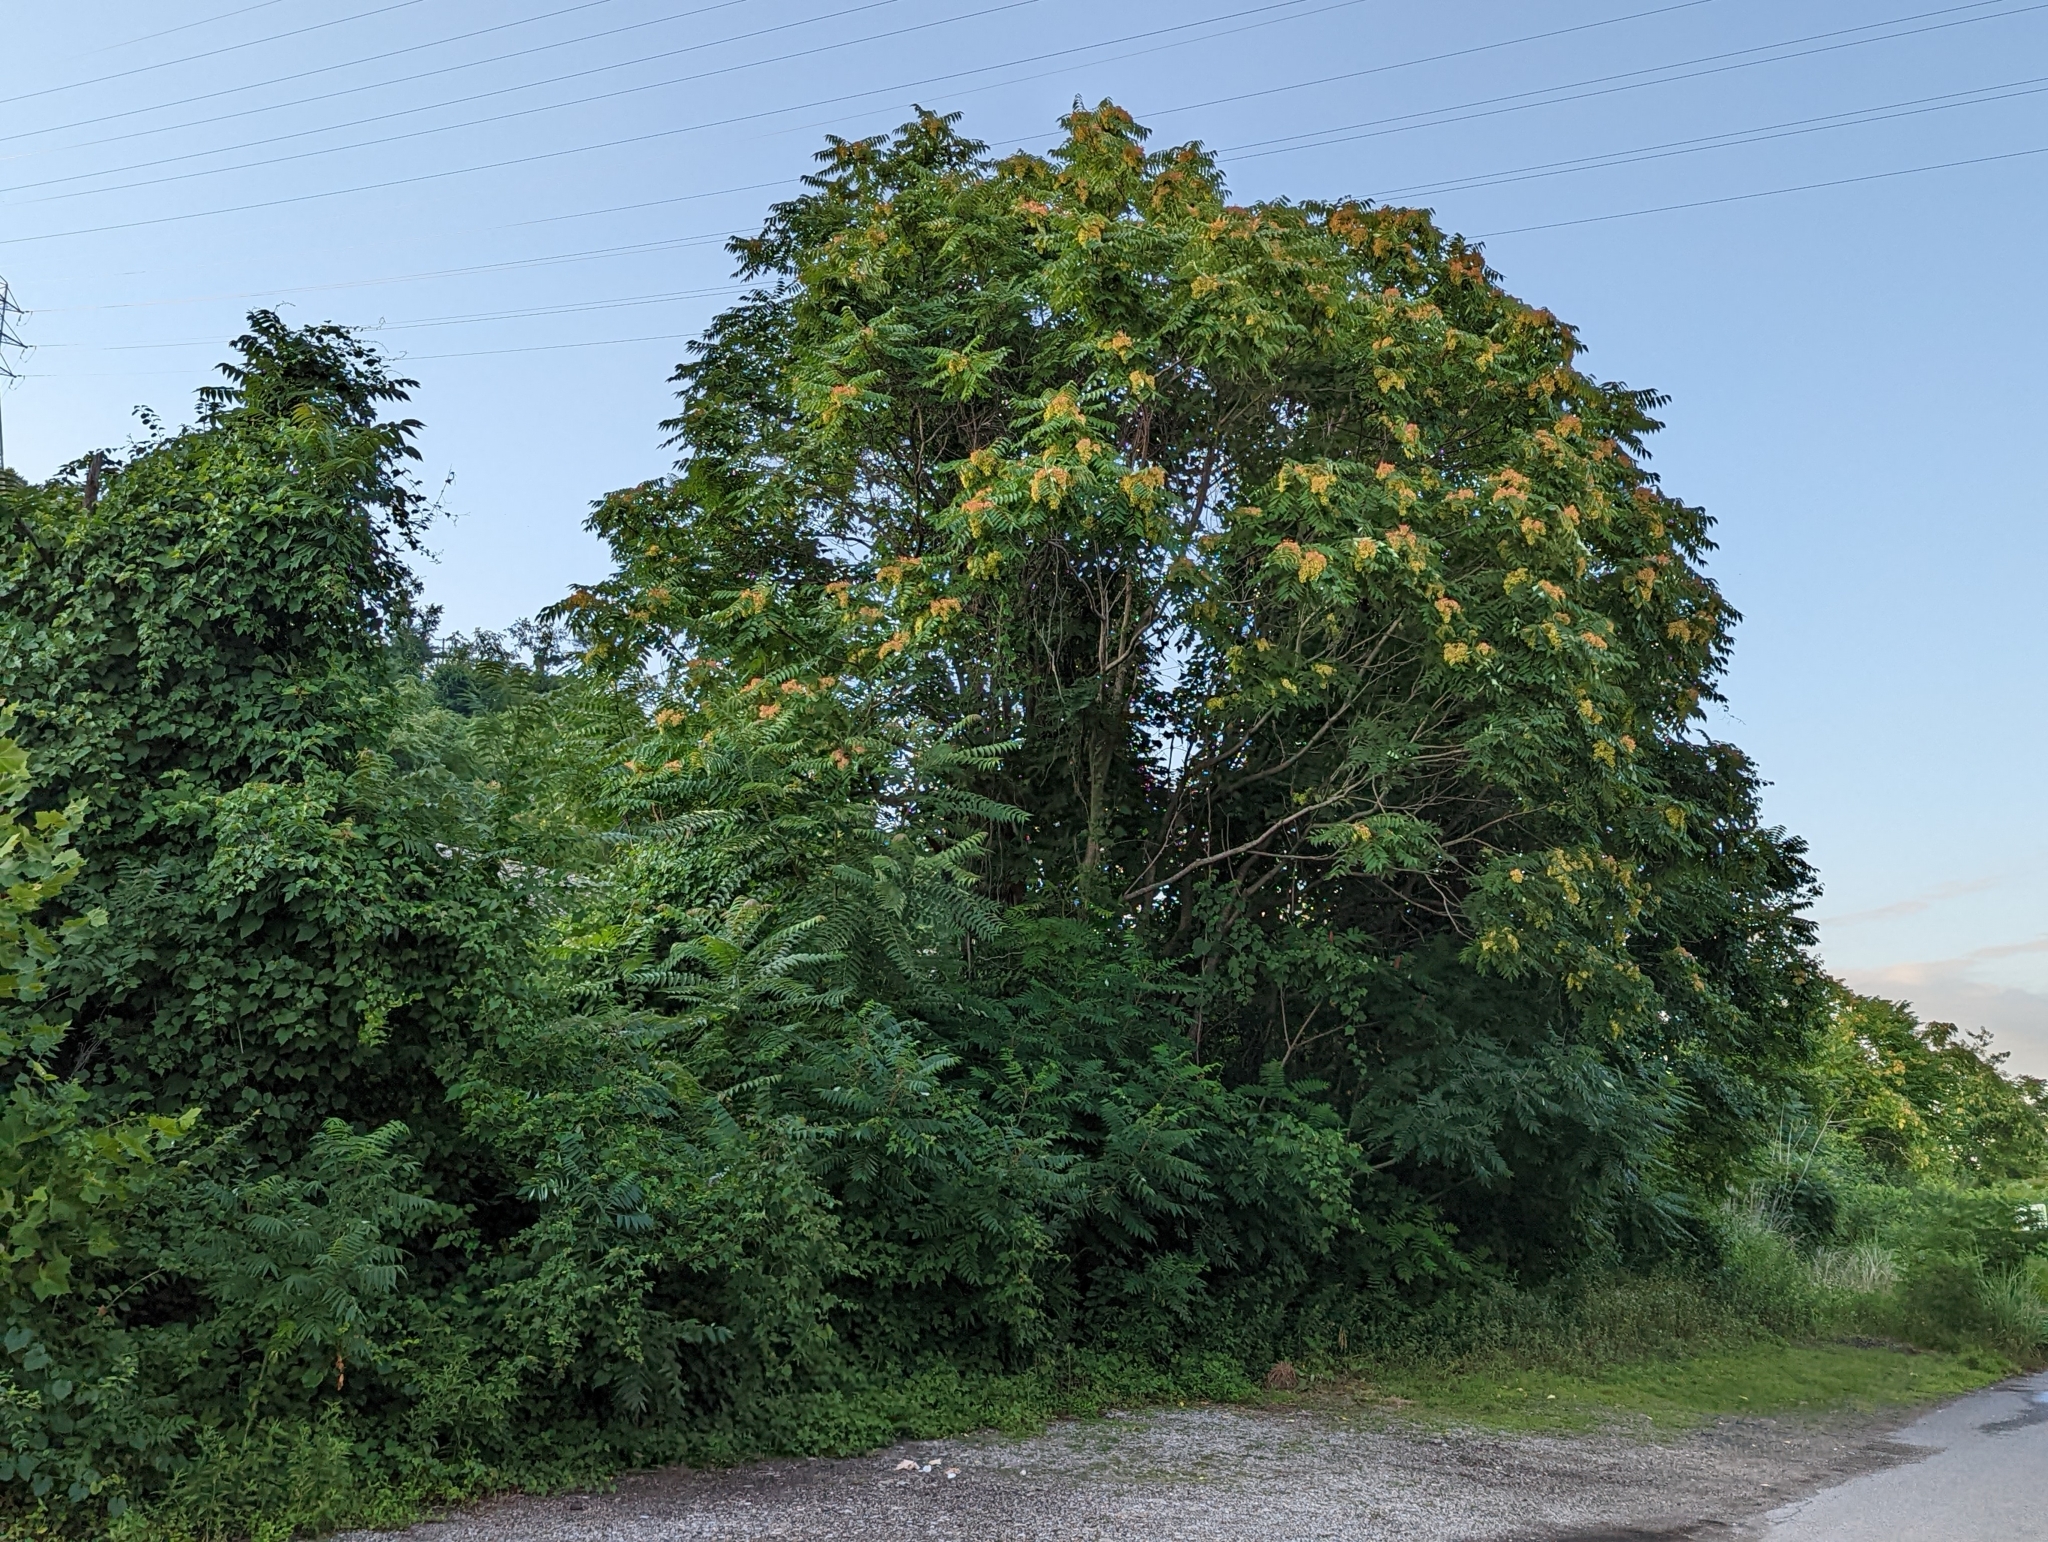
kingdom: Plantae
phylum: Tracheophyta
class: Magnoliopsida
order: Sapindales
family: Simaroubaceae
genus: Ailanthus
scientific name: Ailanthus altissima
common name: Tree-of-heaven
